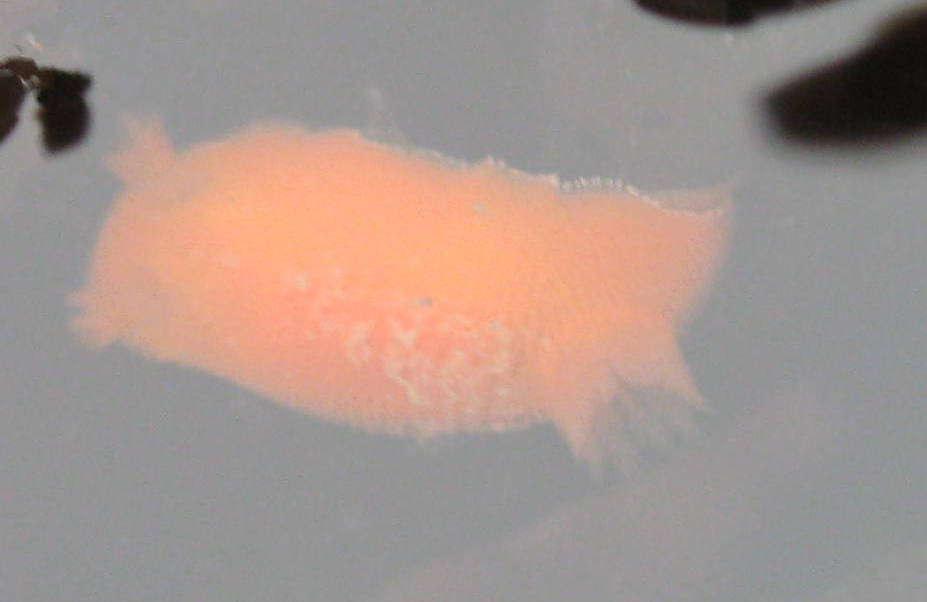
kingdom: Animalia
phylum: Mollusca
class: Gastropoda
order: Nudibranchia
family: Discodorididae
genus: Rostanga
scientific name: Rostanga pulchra
